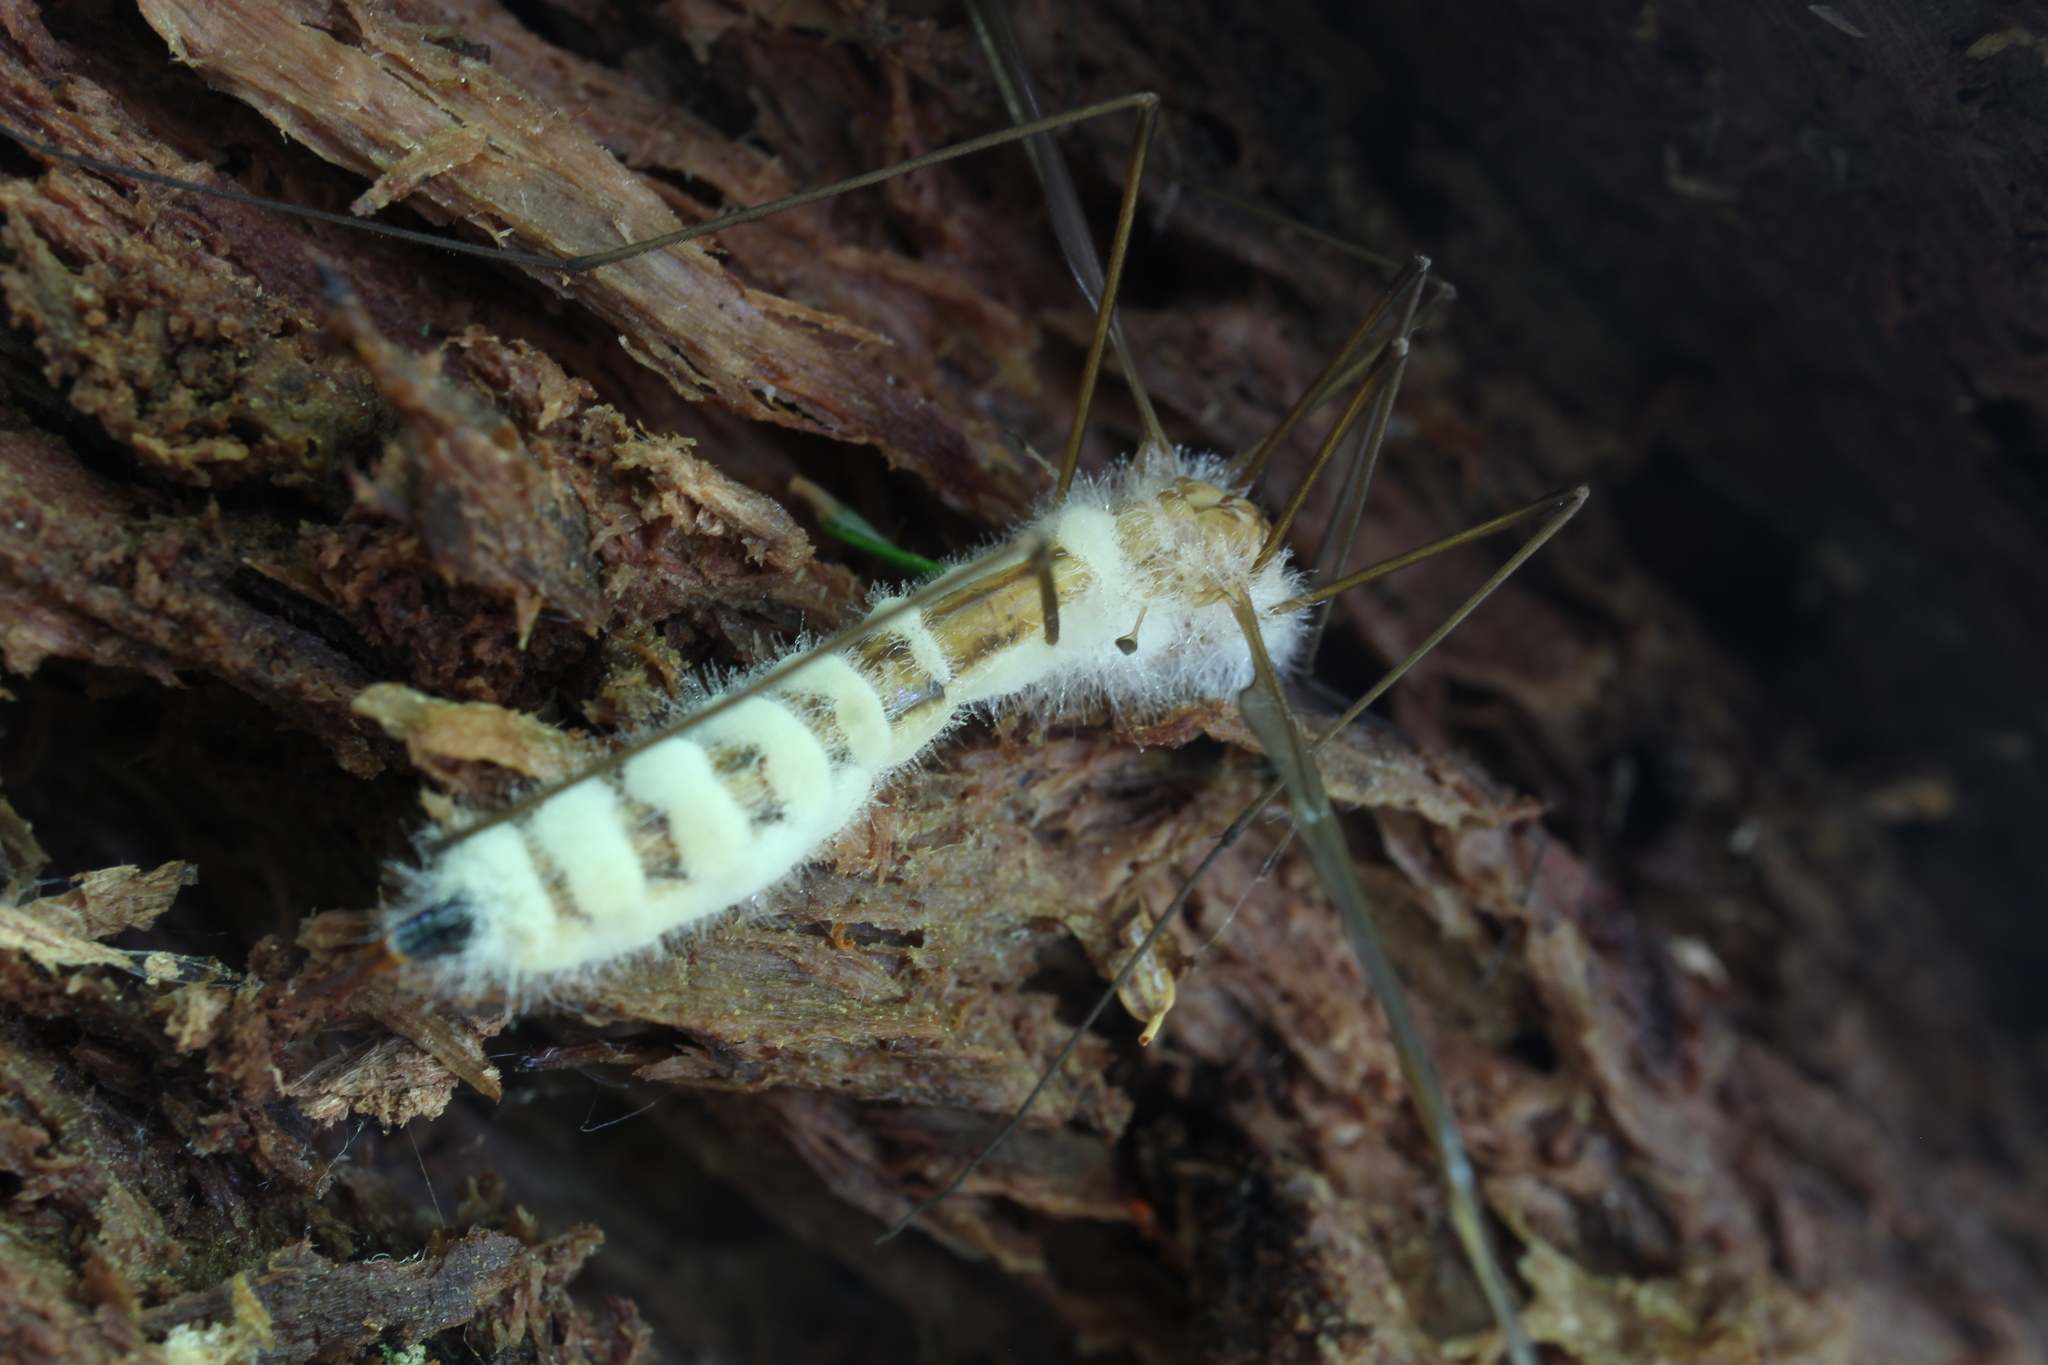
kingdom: Fungi
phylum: Entomophthoromycota
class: Entomophthoromycetes
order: Entomophthorales
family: Entomophthoraceae
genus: Erynia
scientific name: Erynia sepulchralis
